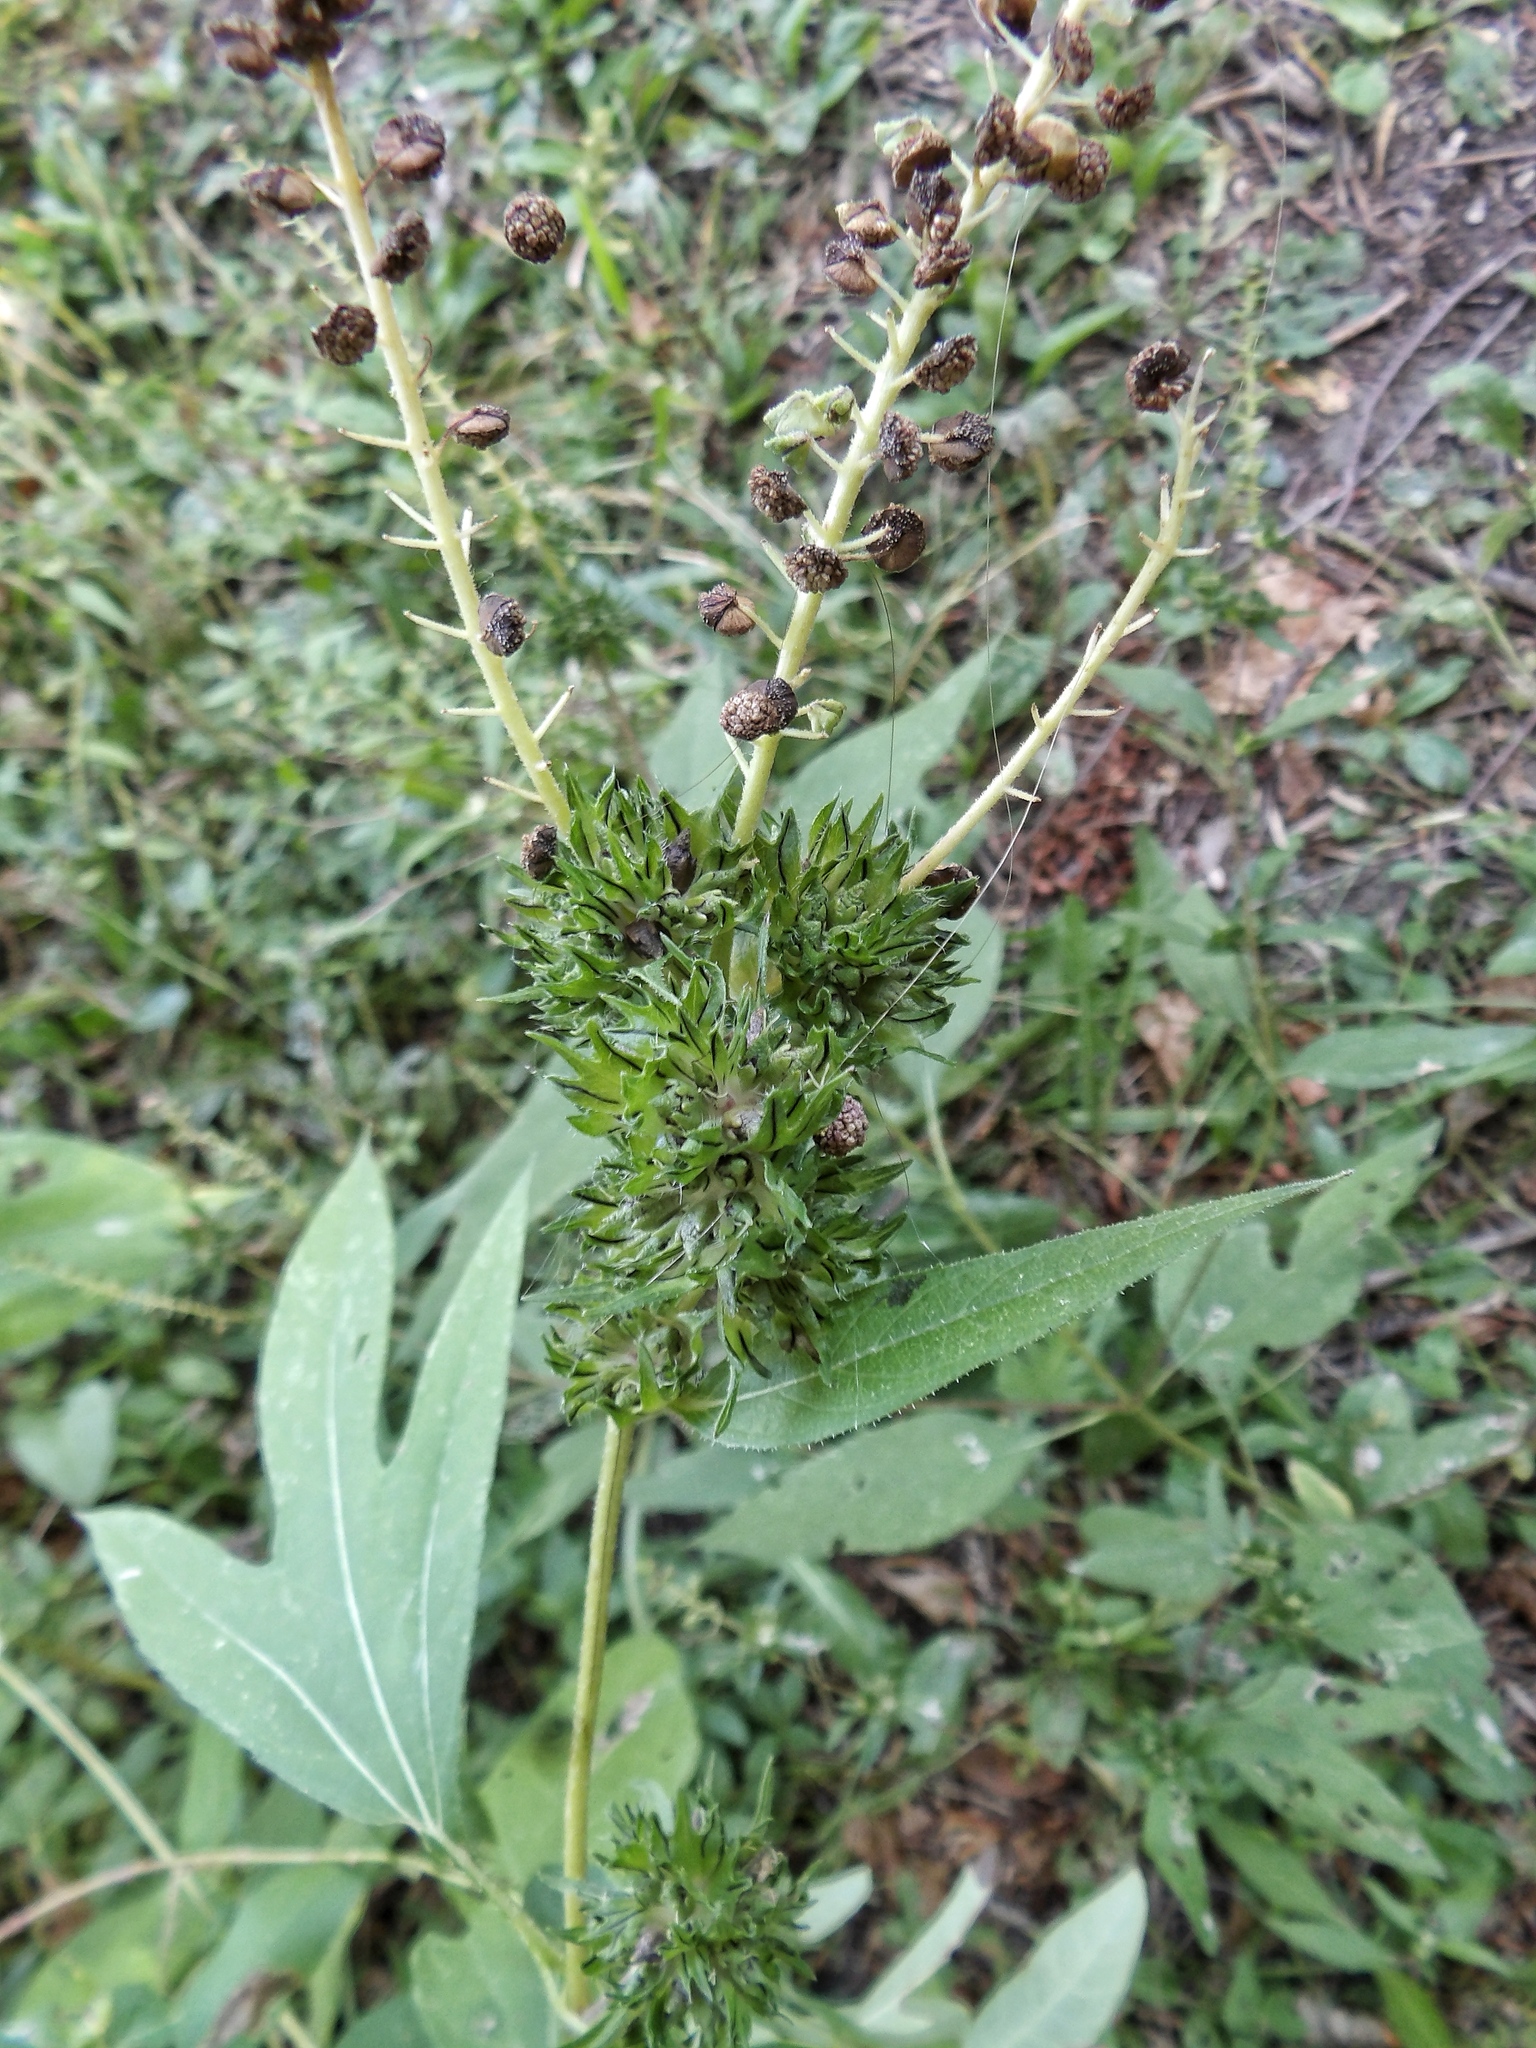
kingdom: Plantae
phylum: Tracheophyta
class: Magnoliopsida
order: Asterales
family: Asteraceae
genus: Ambrosia
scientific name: Ambrosia trifida
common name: Giant ragweed
